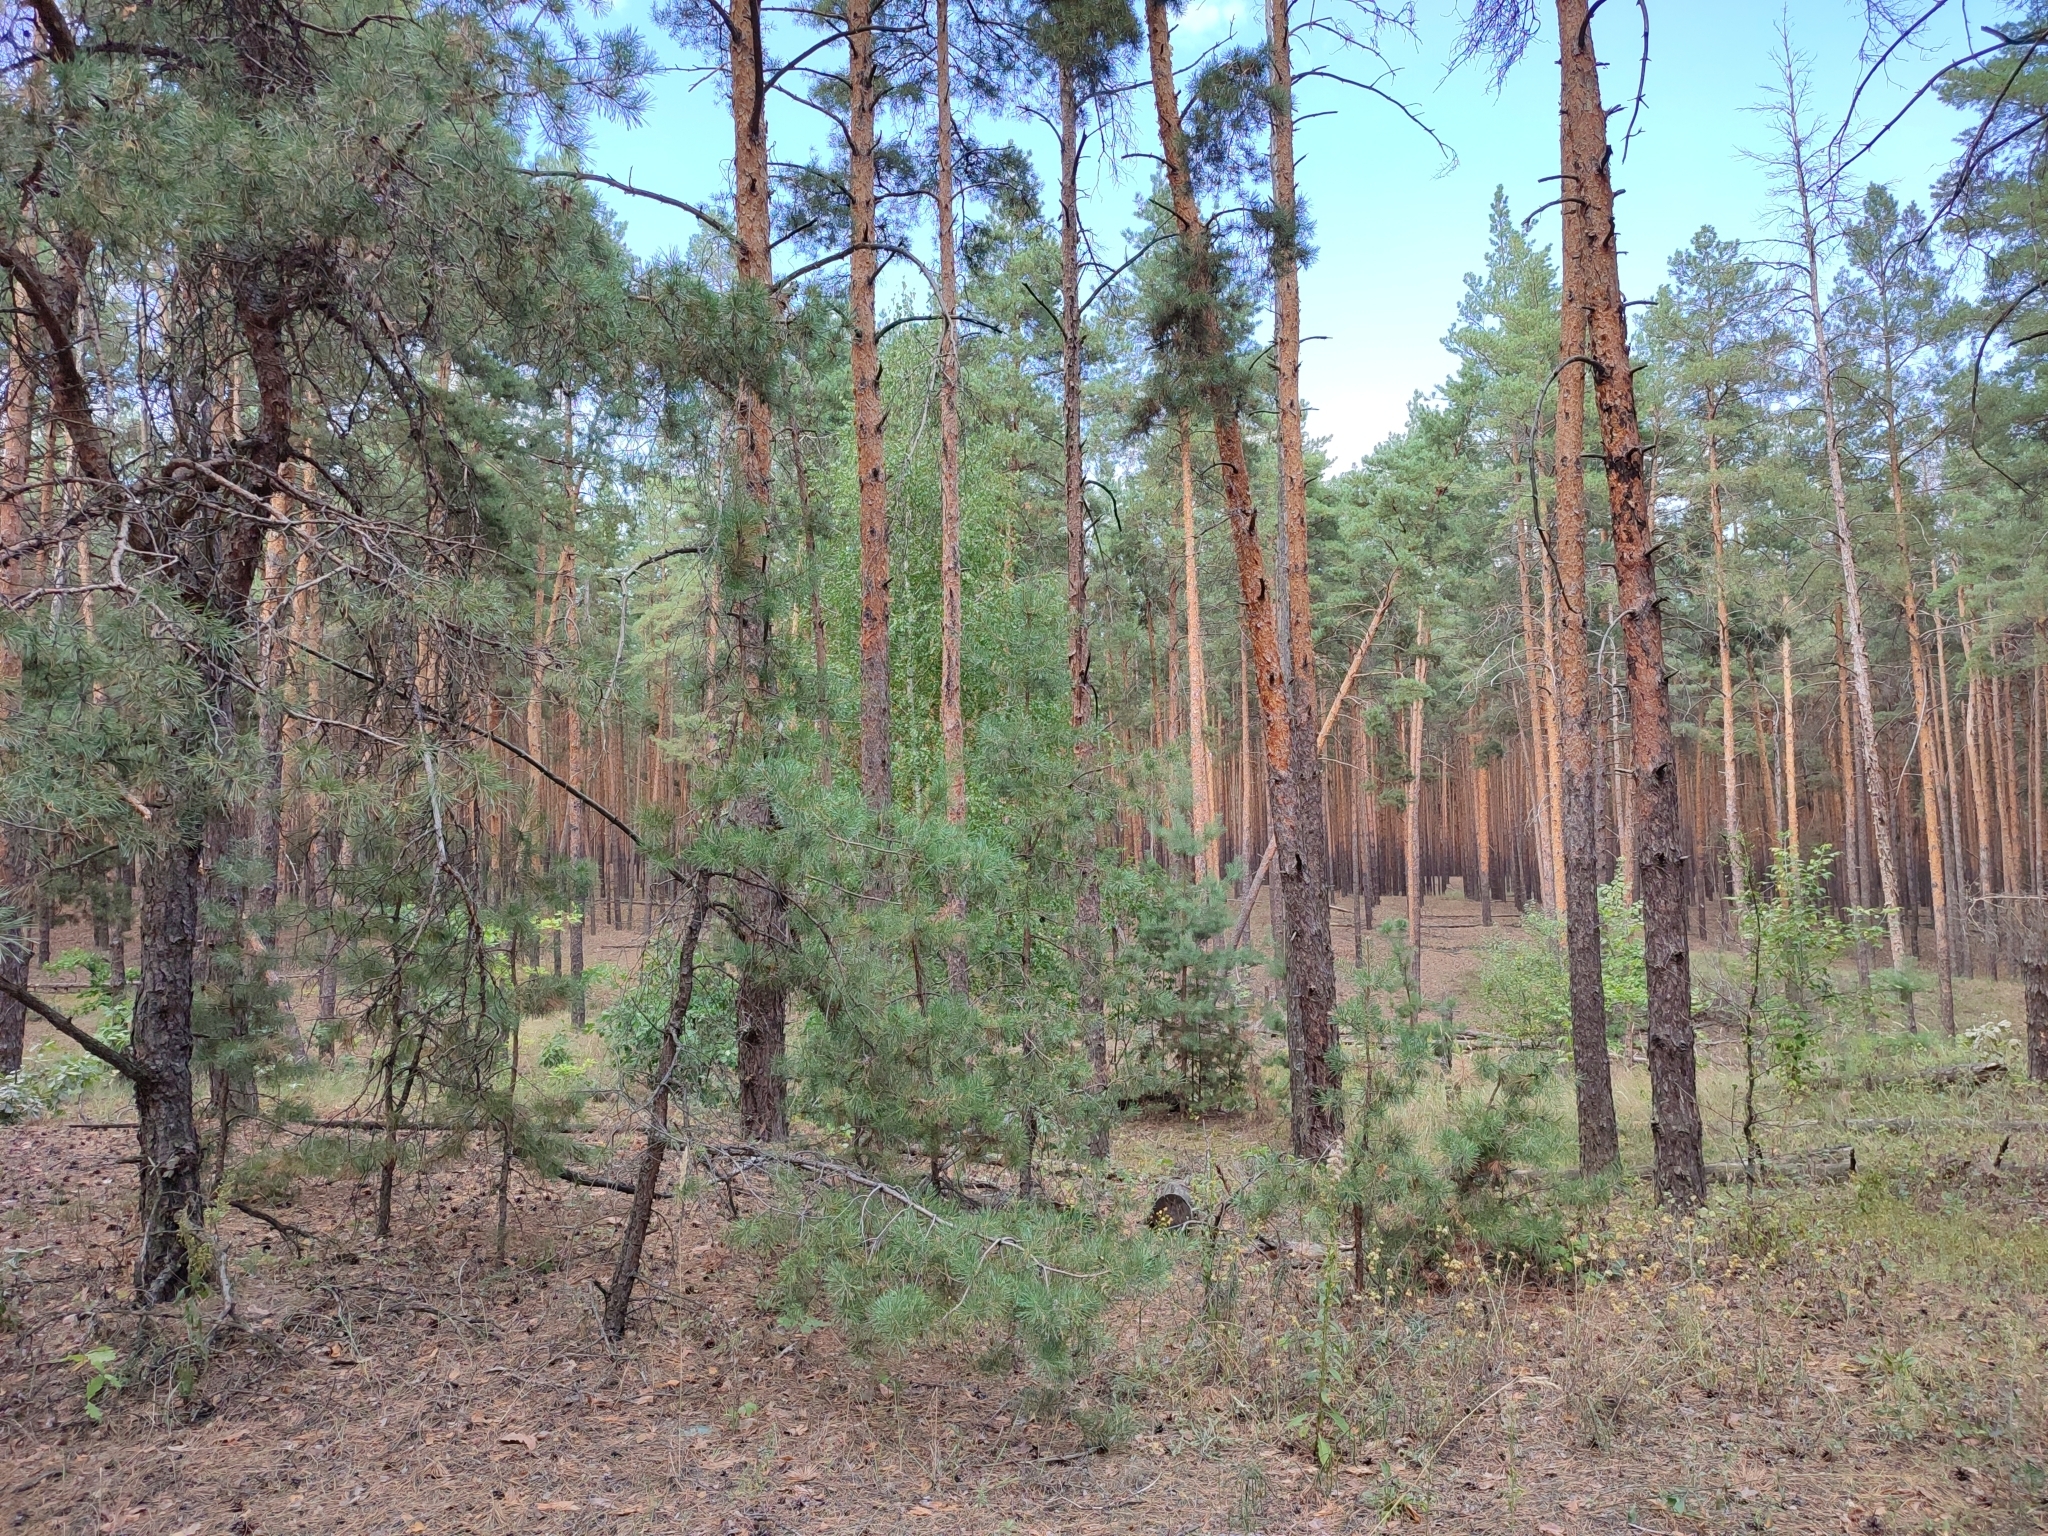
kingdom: Plantae
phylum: Tracheophyta
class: Pinopsida
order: Pinales
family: Pinaceae
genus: Pinus
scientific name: Pinus sylvestris
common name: Scots pine
